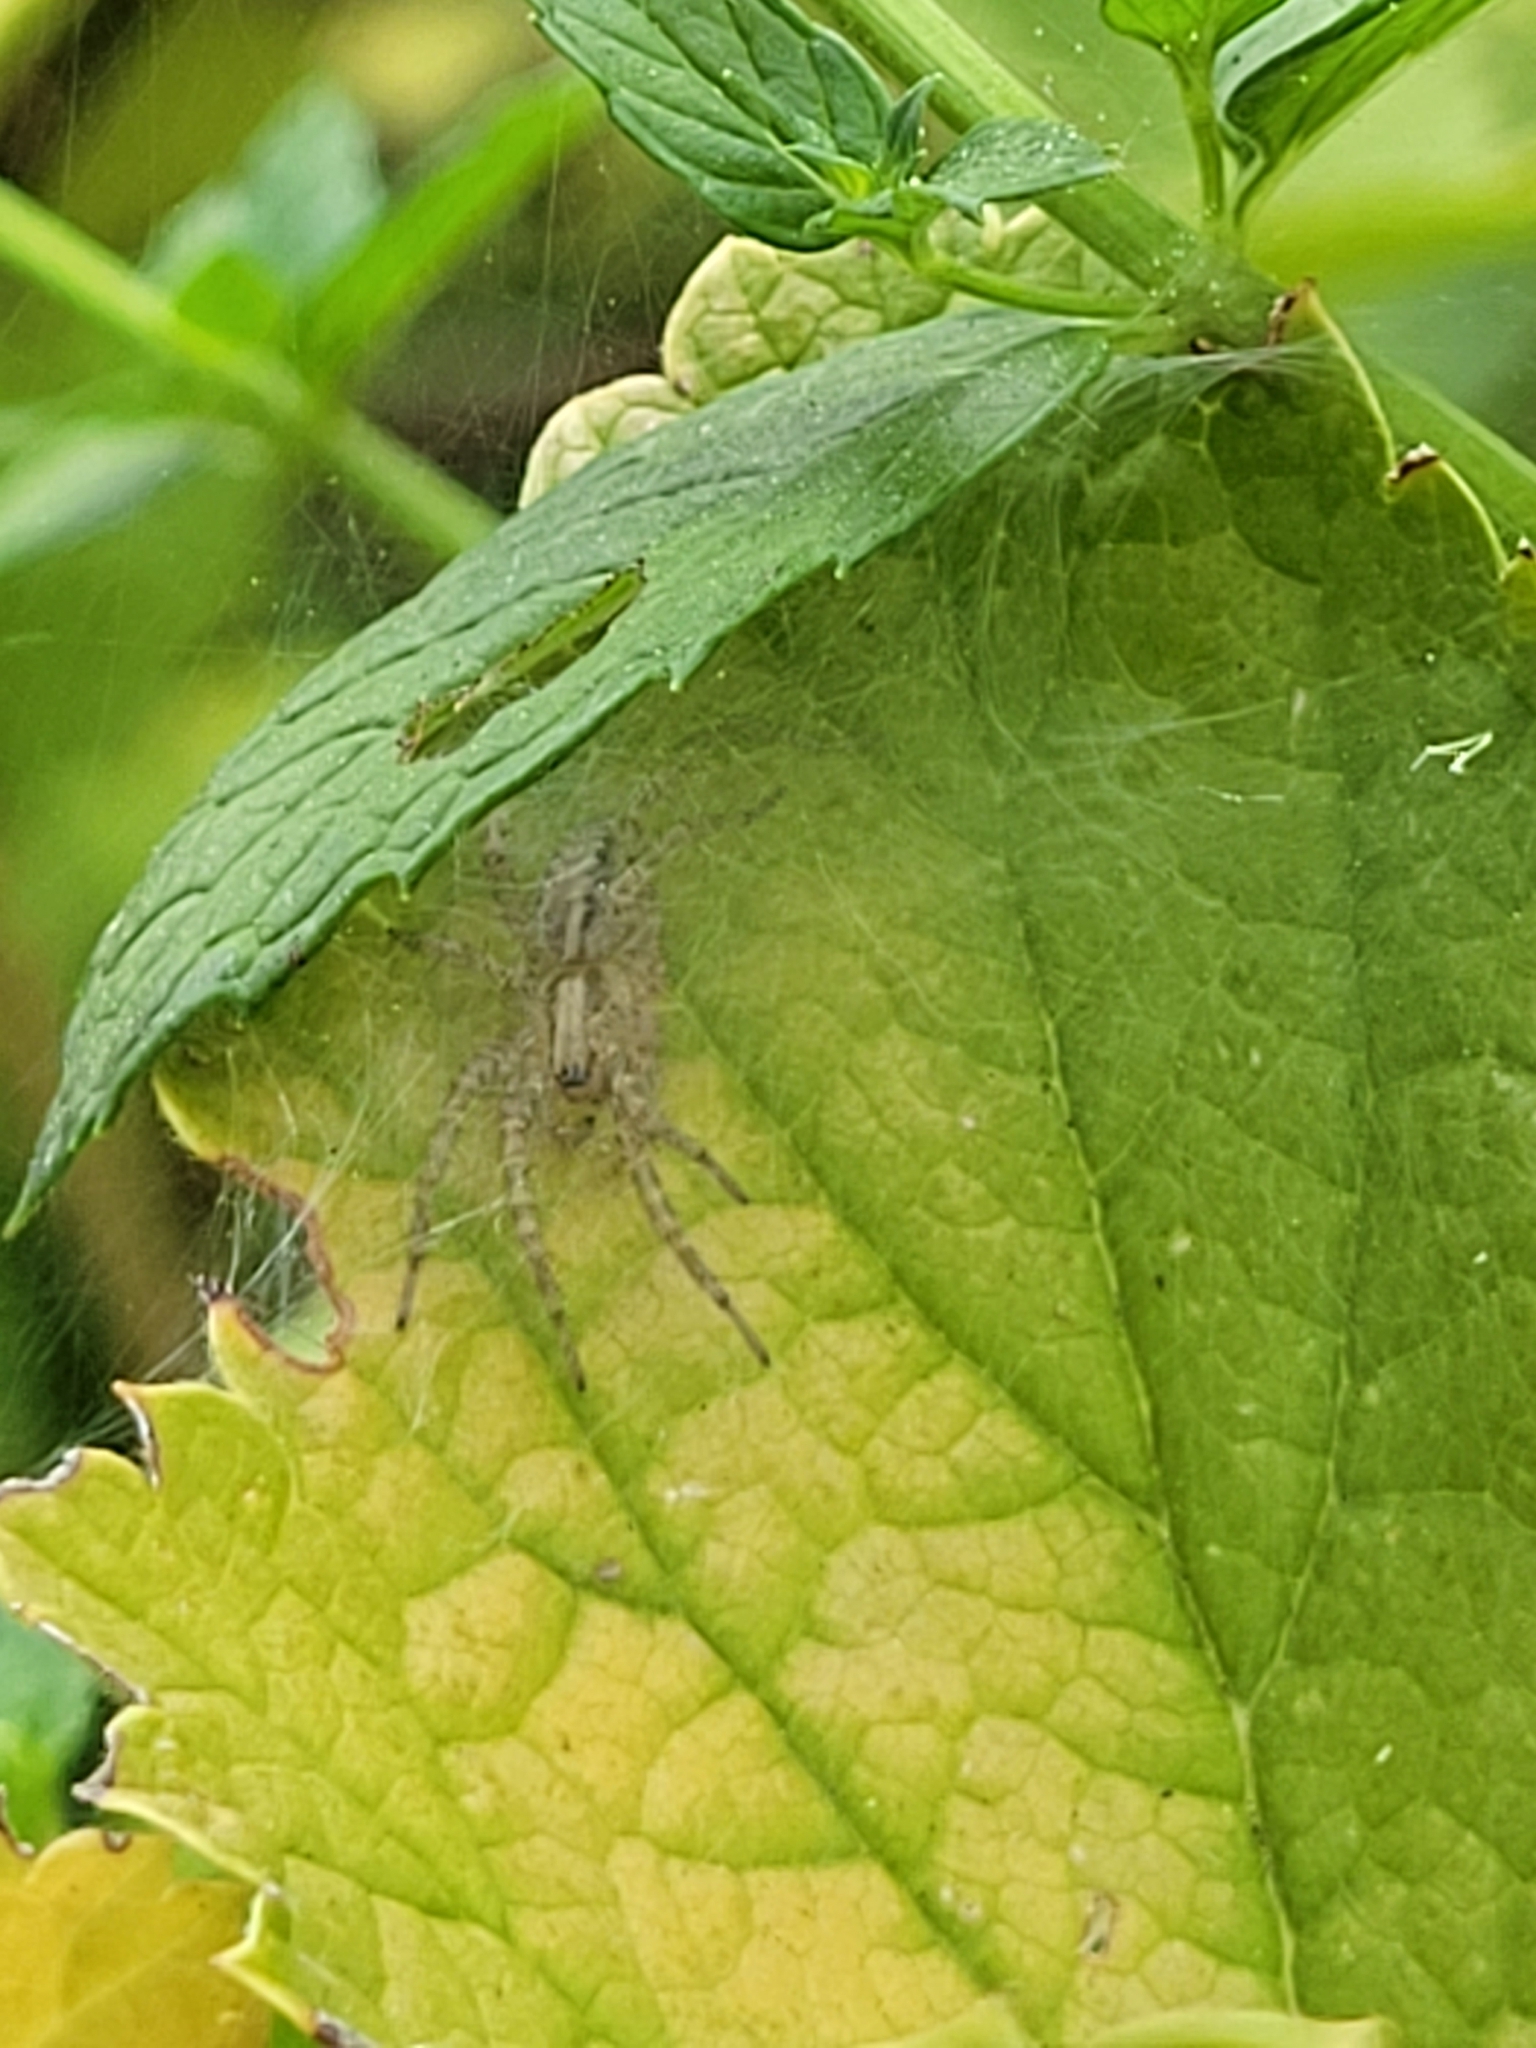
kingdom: Animalia
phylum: Arthropoda
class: Arachnida
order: Araneae
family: Agelenidae
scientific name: Agelenidae
